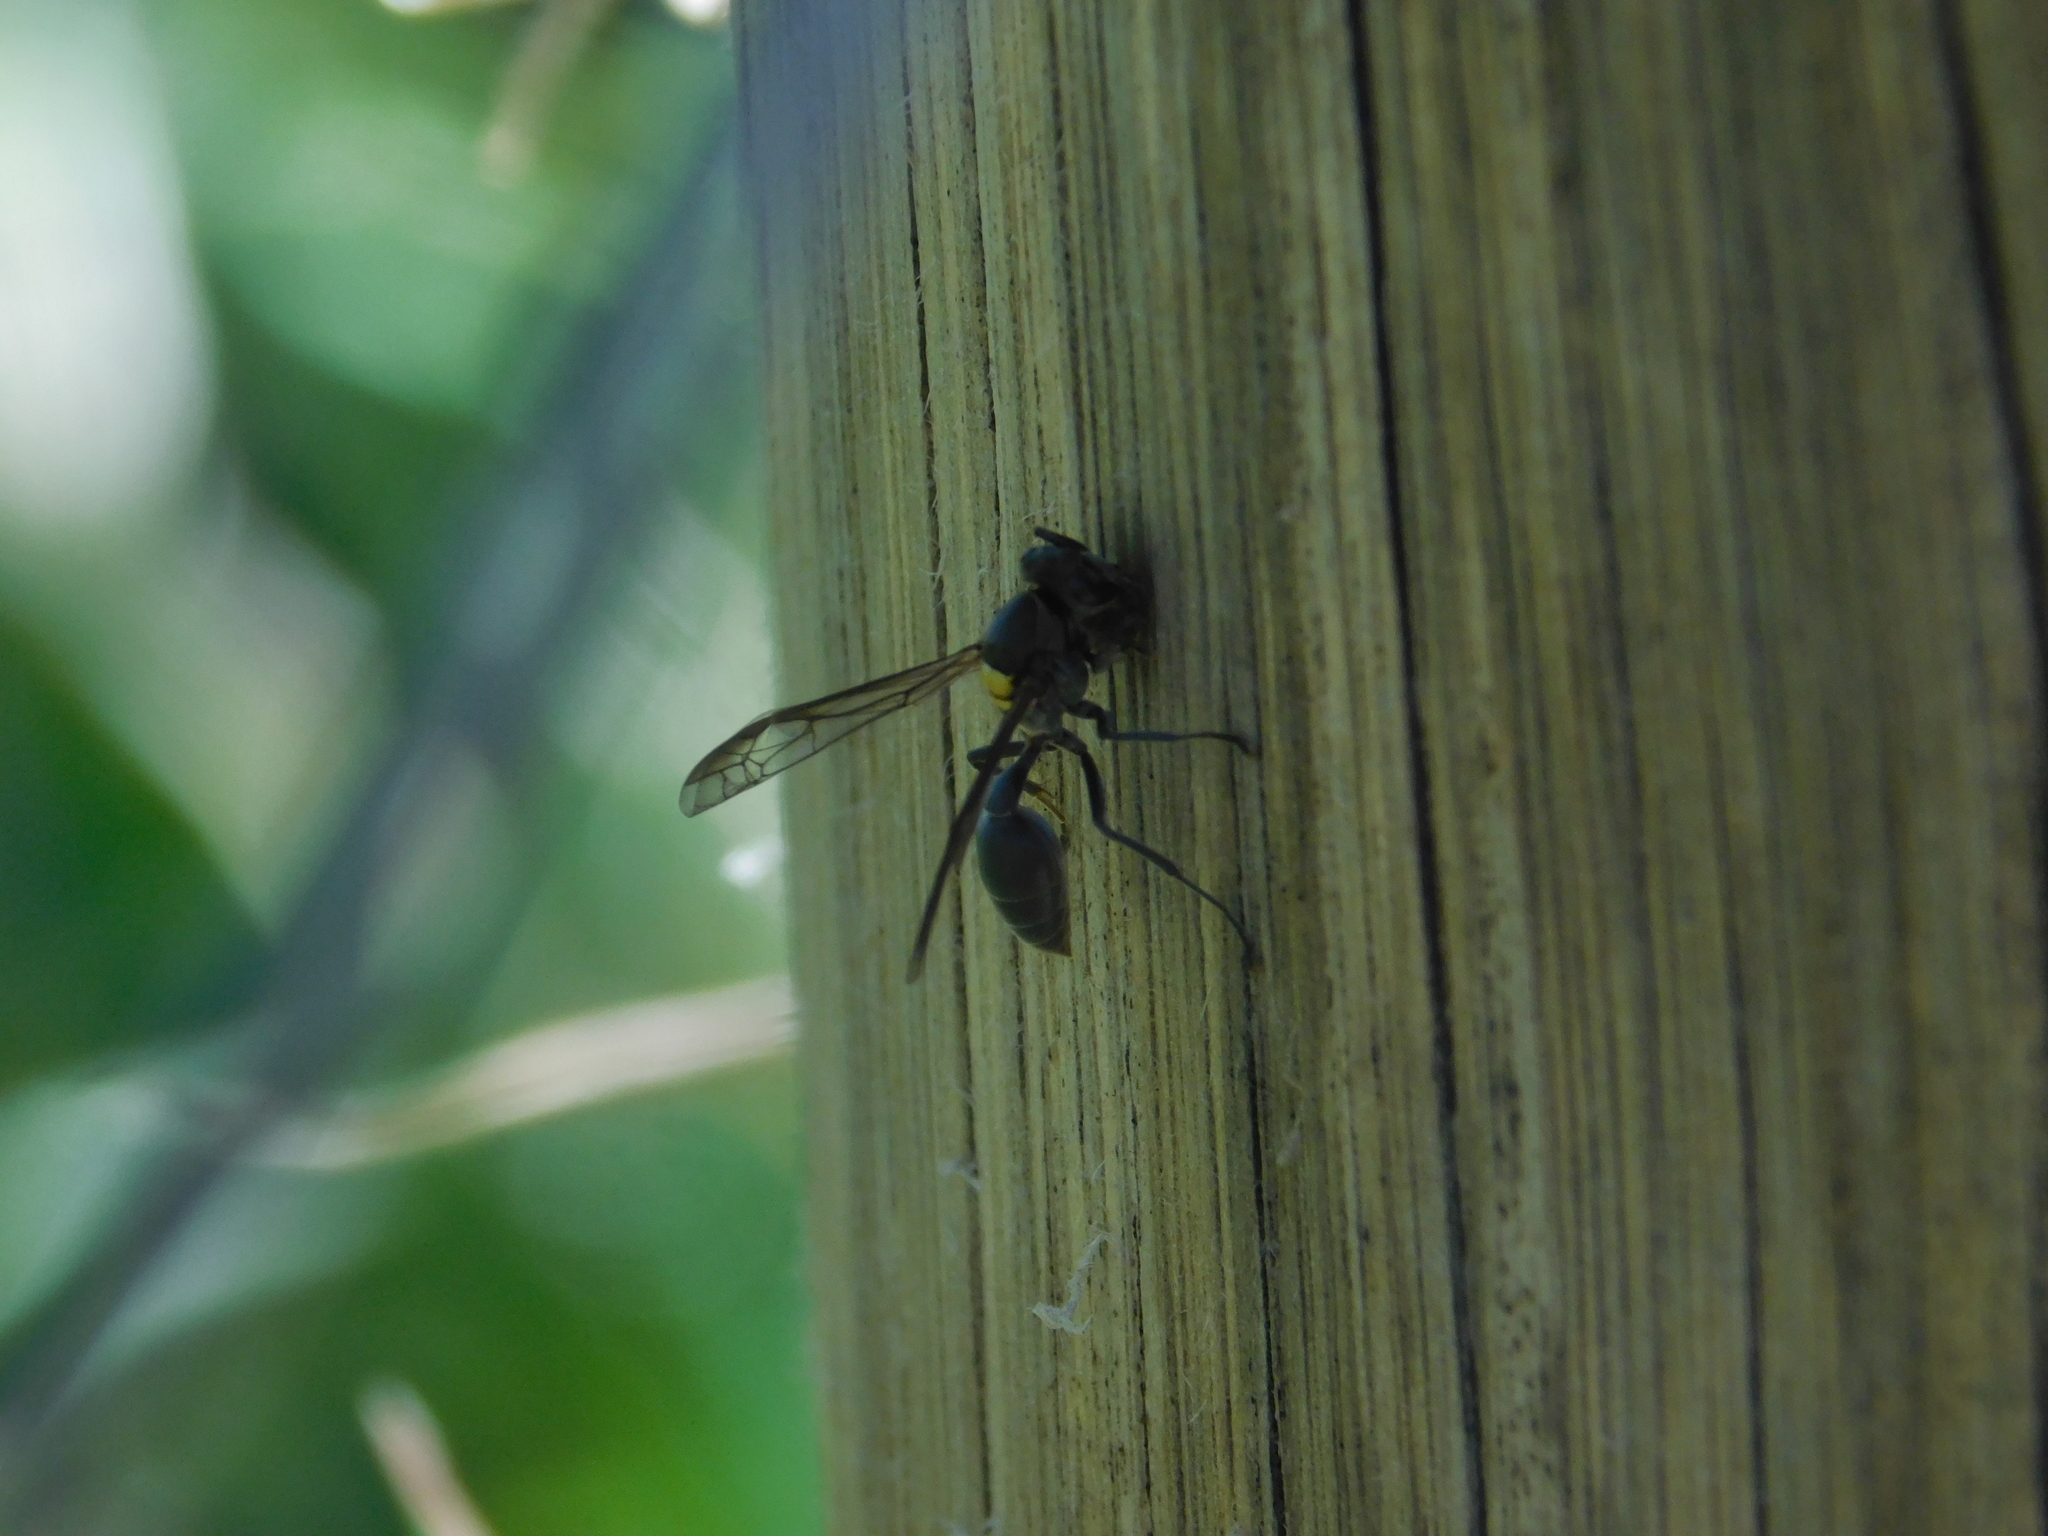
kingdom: Animalia
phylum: Arthropoda
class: Insecta
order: Hymenoptera
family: Eumenidae
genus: Polybia
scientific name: Polybia scutellaris
